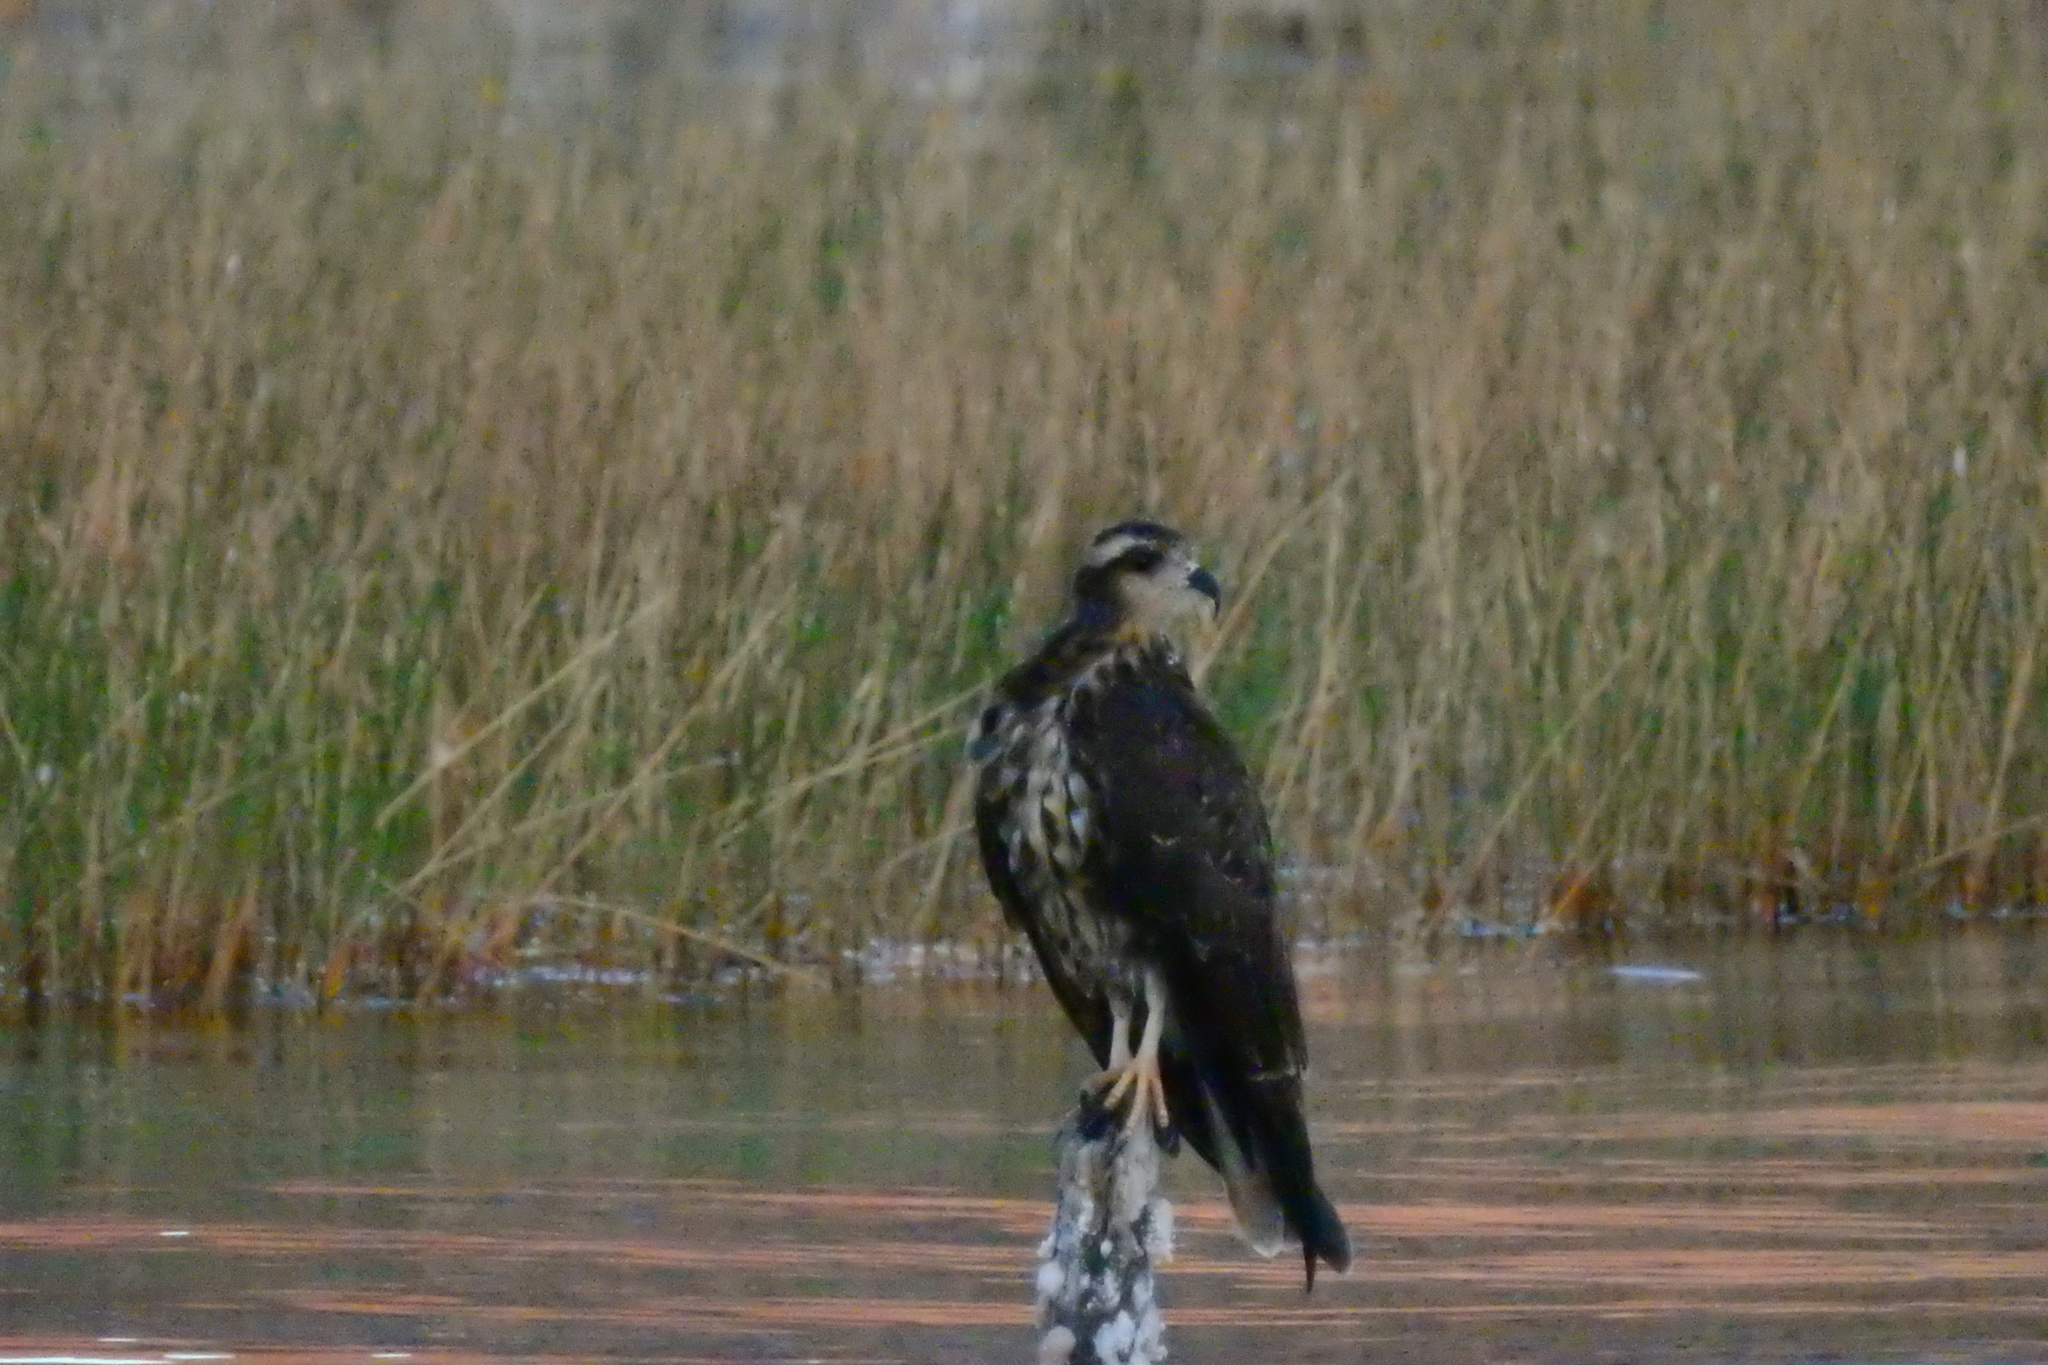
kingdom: Animalia
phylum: Chordata
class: Aves
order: Accipitriformes
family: Accipitridae
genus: Rostrhamus
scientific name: Rostrhamus sociabilis
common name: Snail kite
